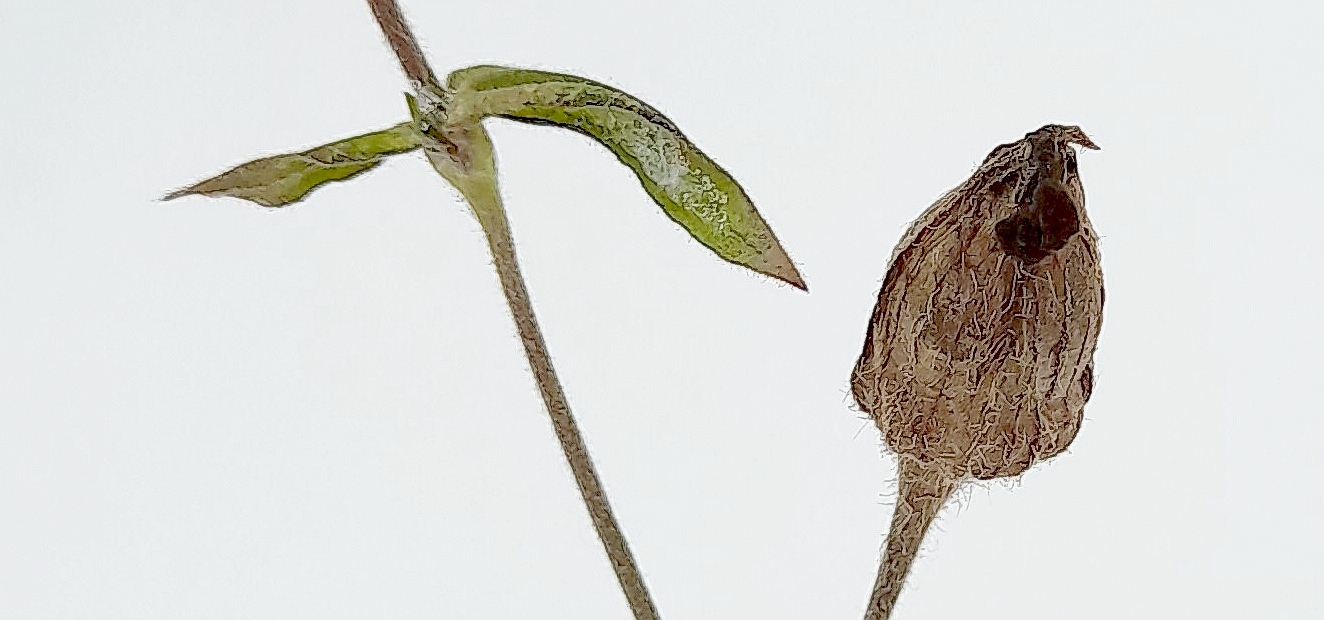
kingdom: Plantae
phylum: Tracheophyta
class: Magnoliopsida
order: Caryophyllales
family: Caryophyllaceae
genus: Silene
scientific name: Silene latifolia
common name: White campion
